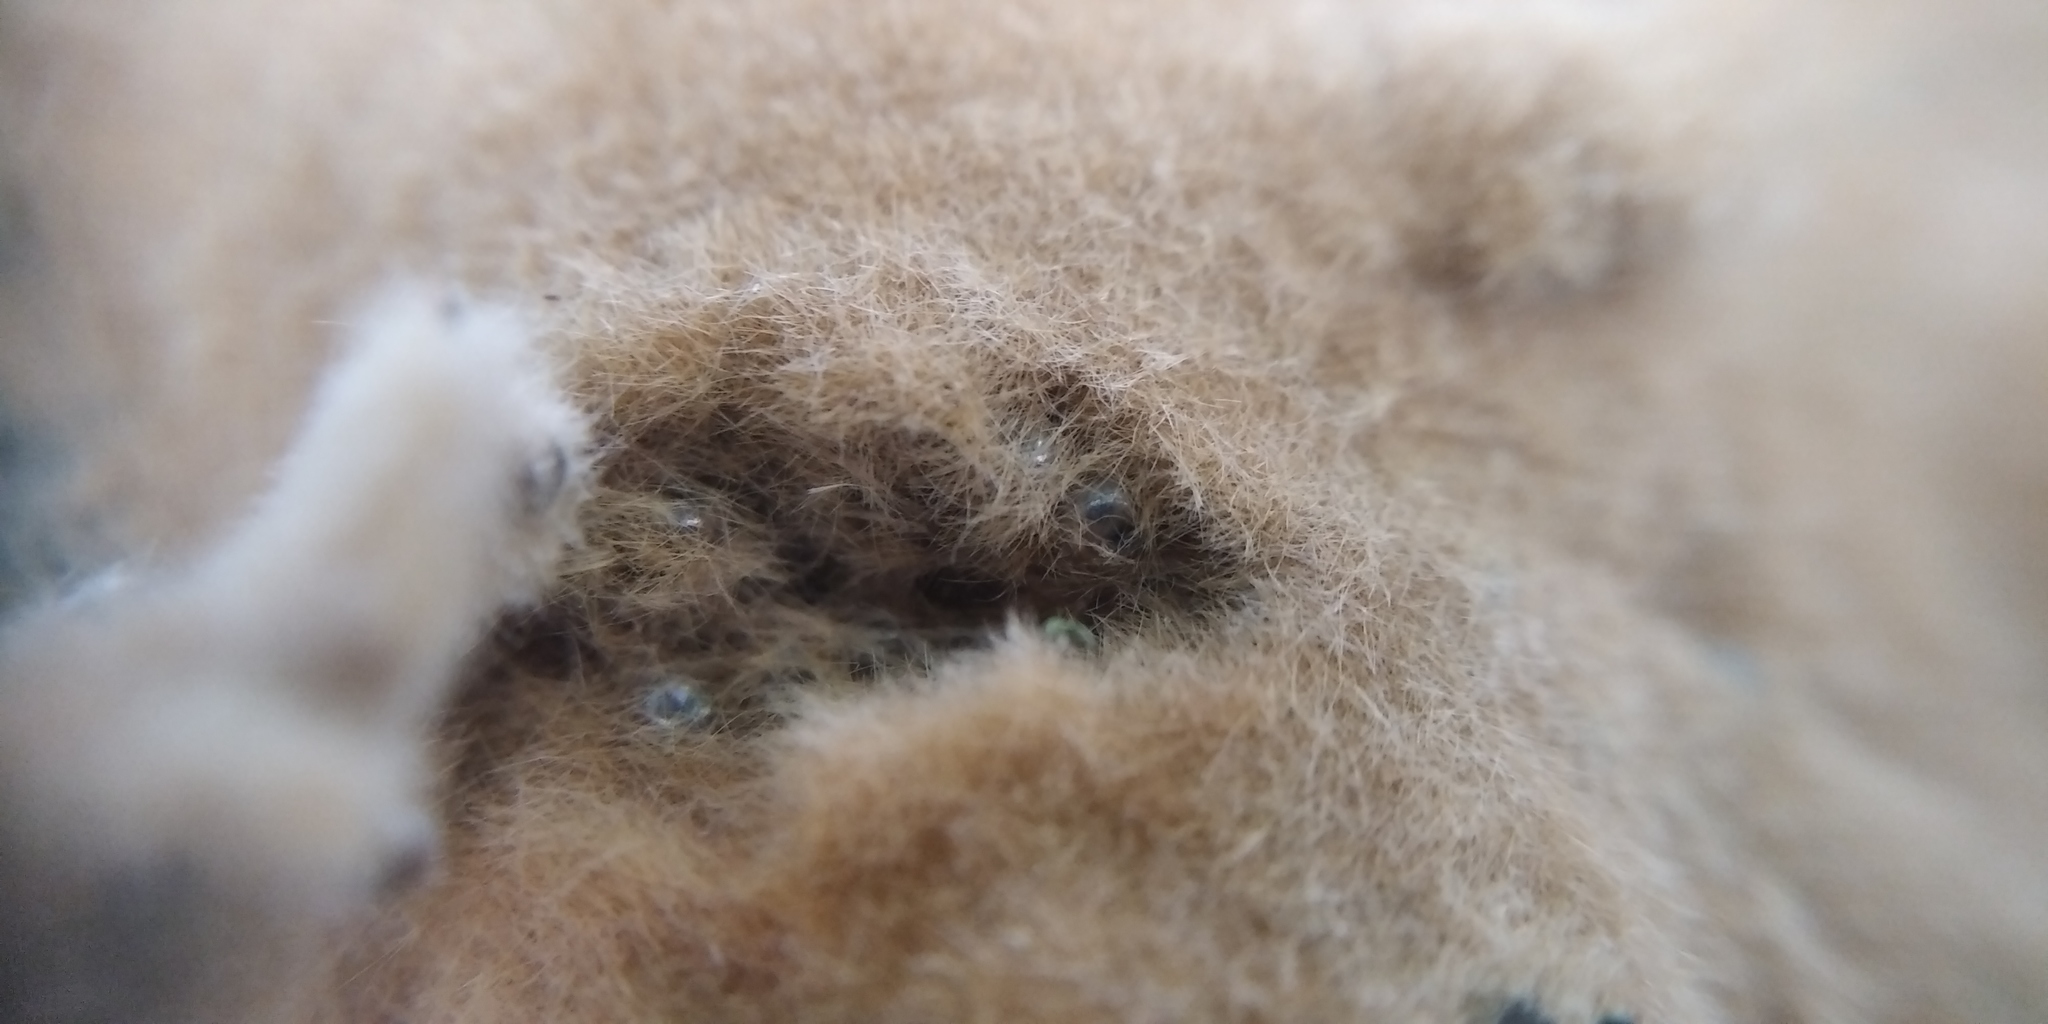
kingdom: Animalia
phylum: Arthropoda
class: Insecta
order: Lepidoptera
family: Erebidae
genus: Lymantria
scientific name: Lymantria dispar
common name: Gypsy moth
